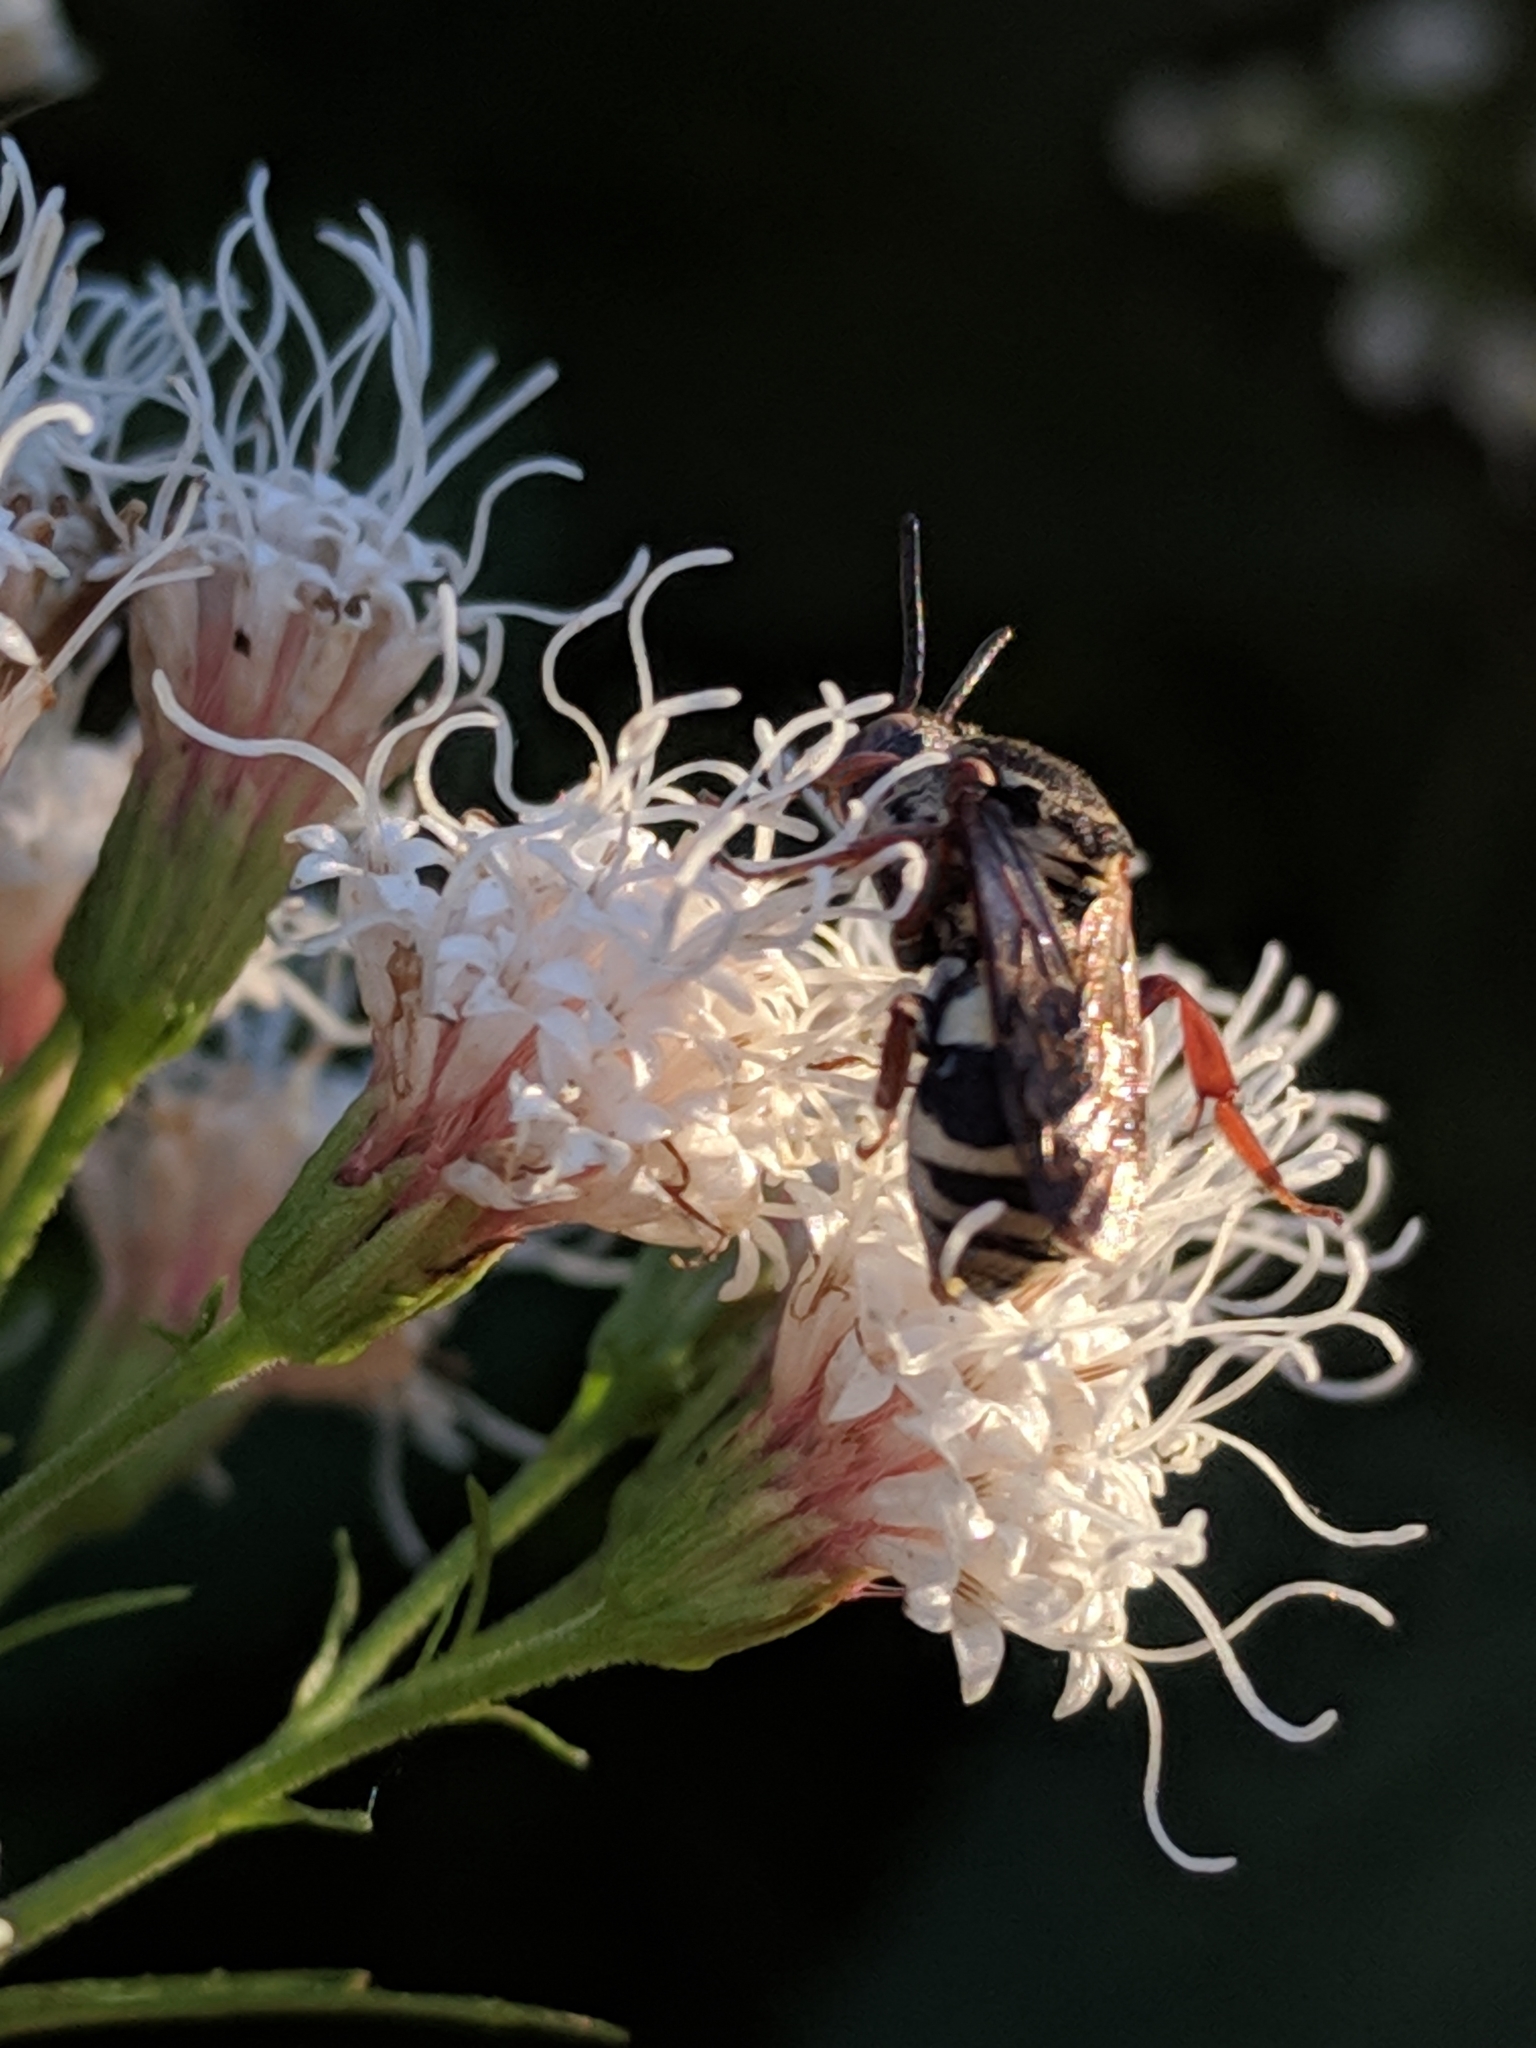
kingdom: Animalia
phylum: Arthropoda
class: Insecta
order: Hymenoptera
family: Apidae
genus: Epeolus
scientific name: Epeolus compactus
